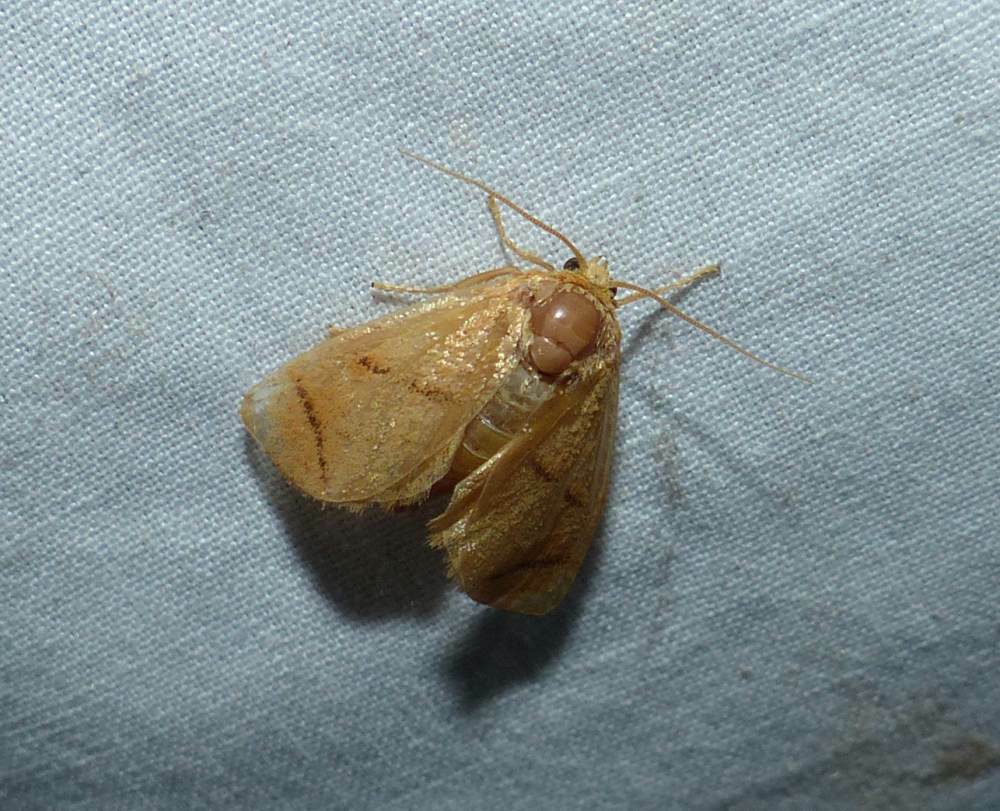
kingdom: Animalia
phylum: Arthropoda
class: Insecta
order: Lepidoptera
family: Limacodidae
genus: Apoda
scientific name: Apoda y-inversa
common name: Yellow-collared slug moth
